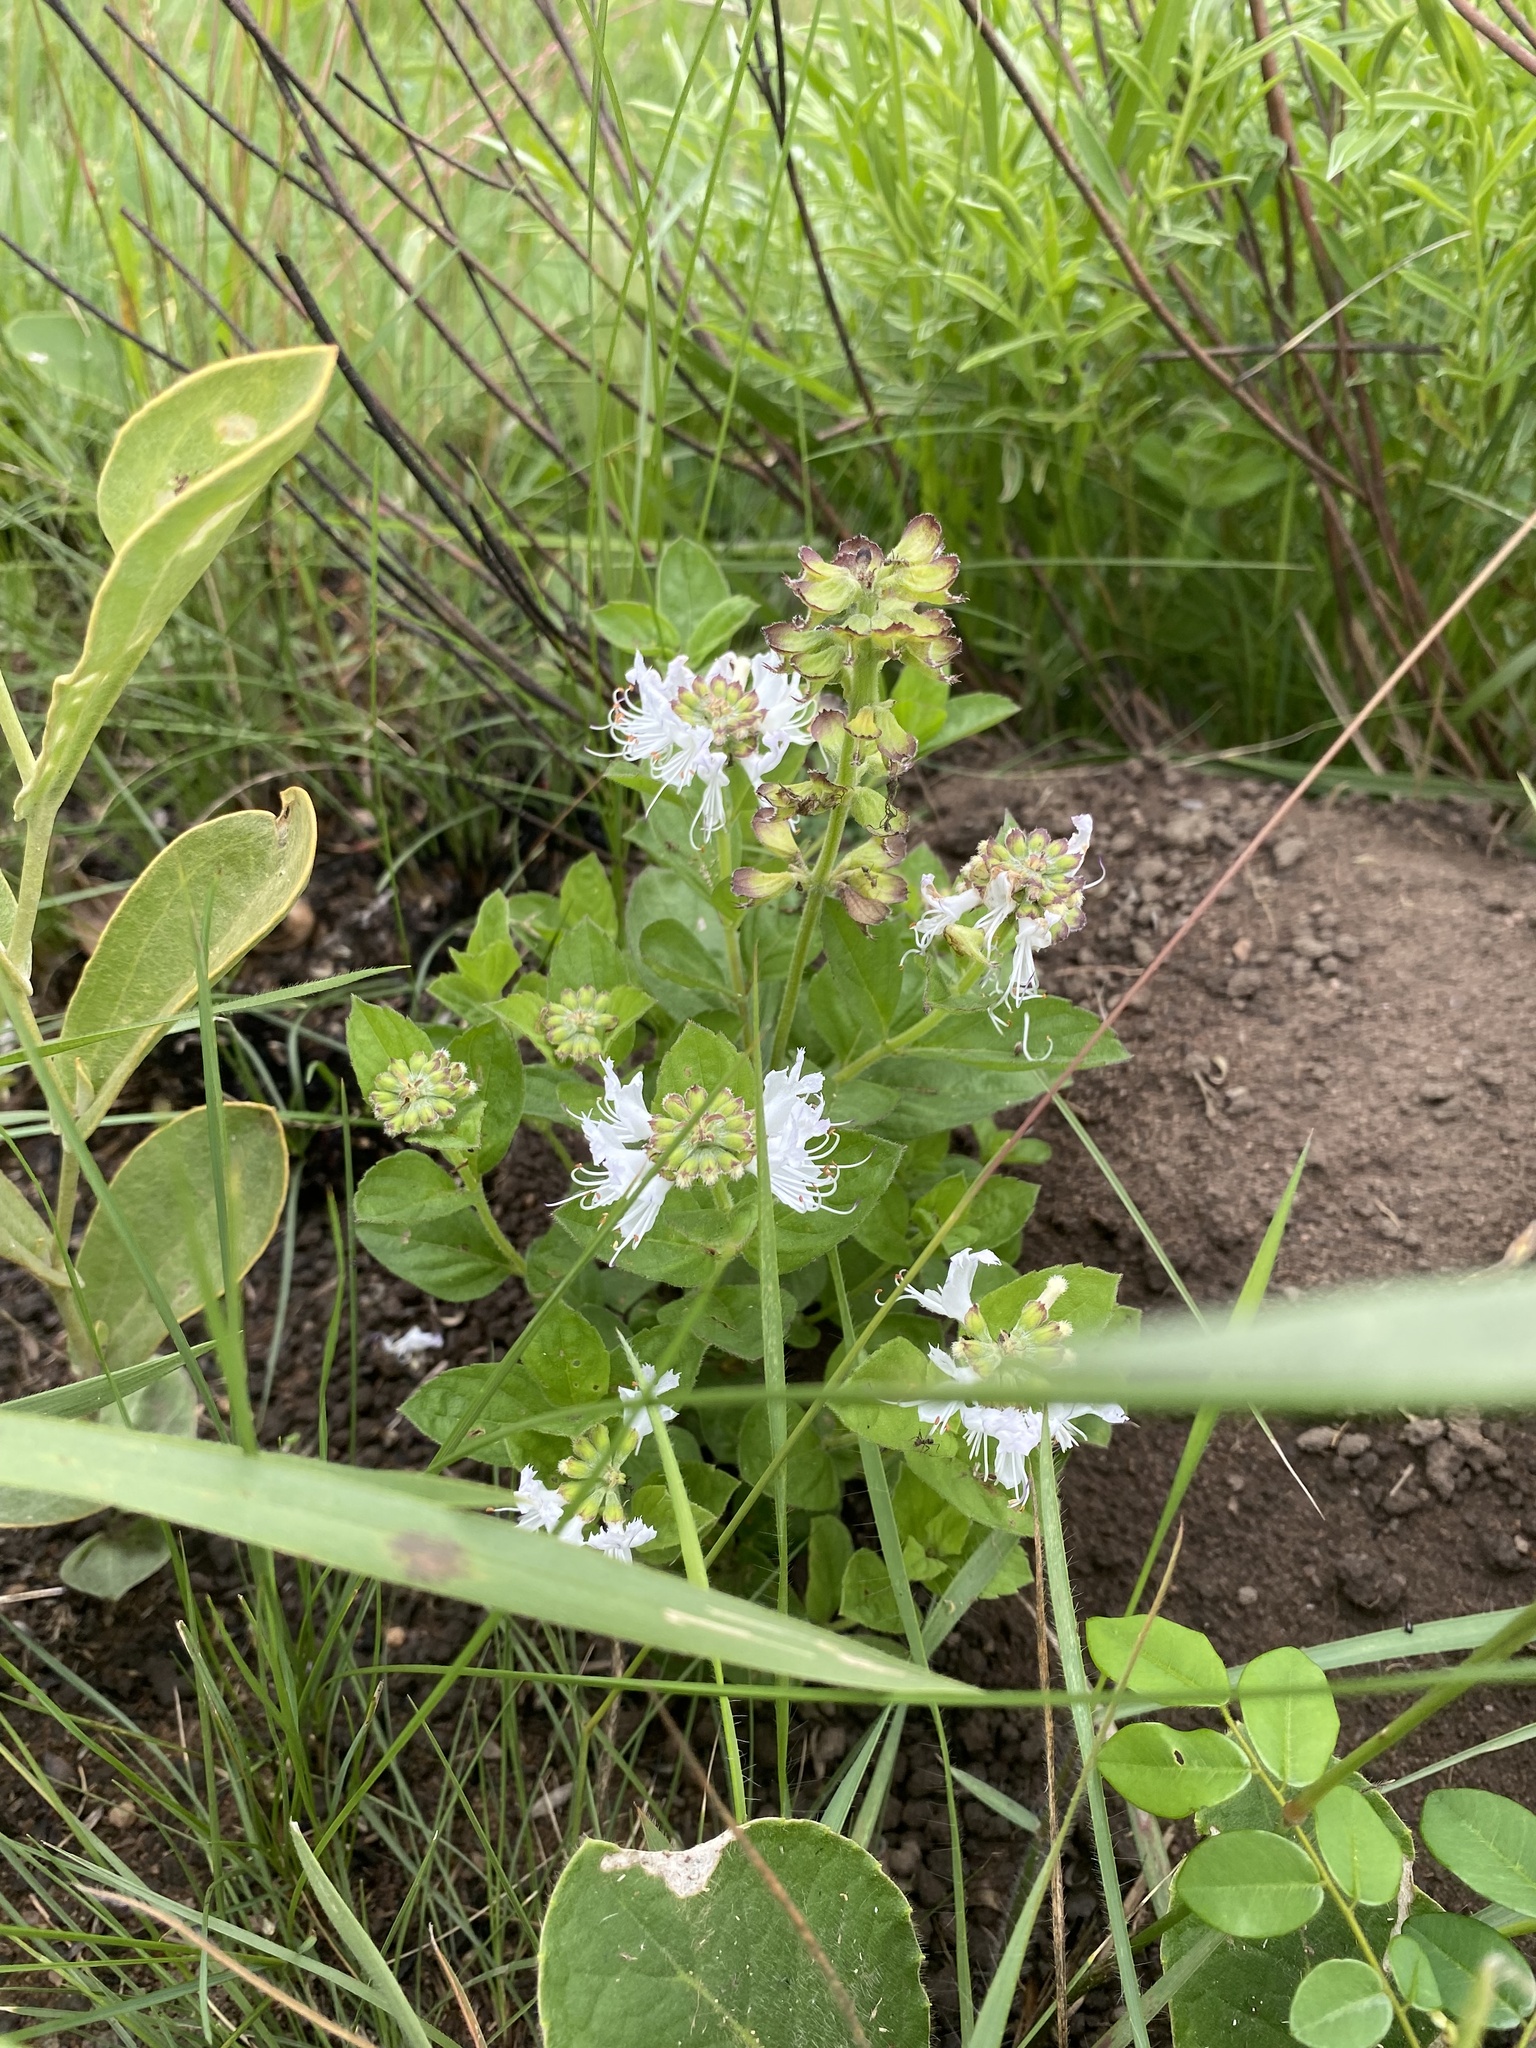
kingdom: Plantae
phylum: Tracheophyta
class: Magnoliopsida
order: Lamiales
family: Lamiaceae
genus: Ocimum
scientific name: Ocimum obovatum
